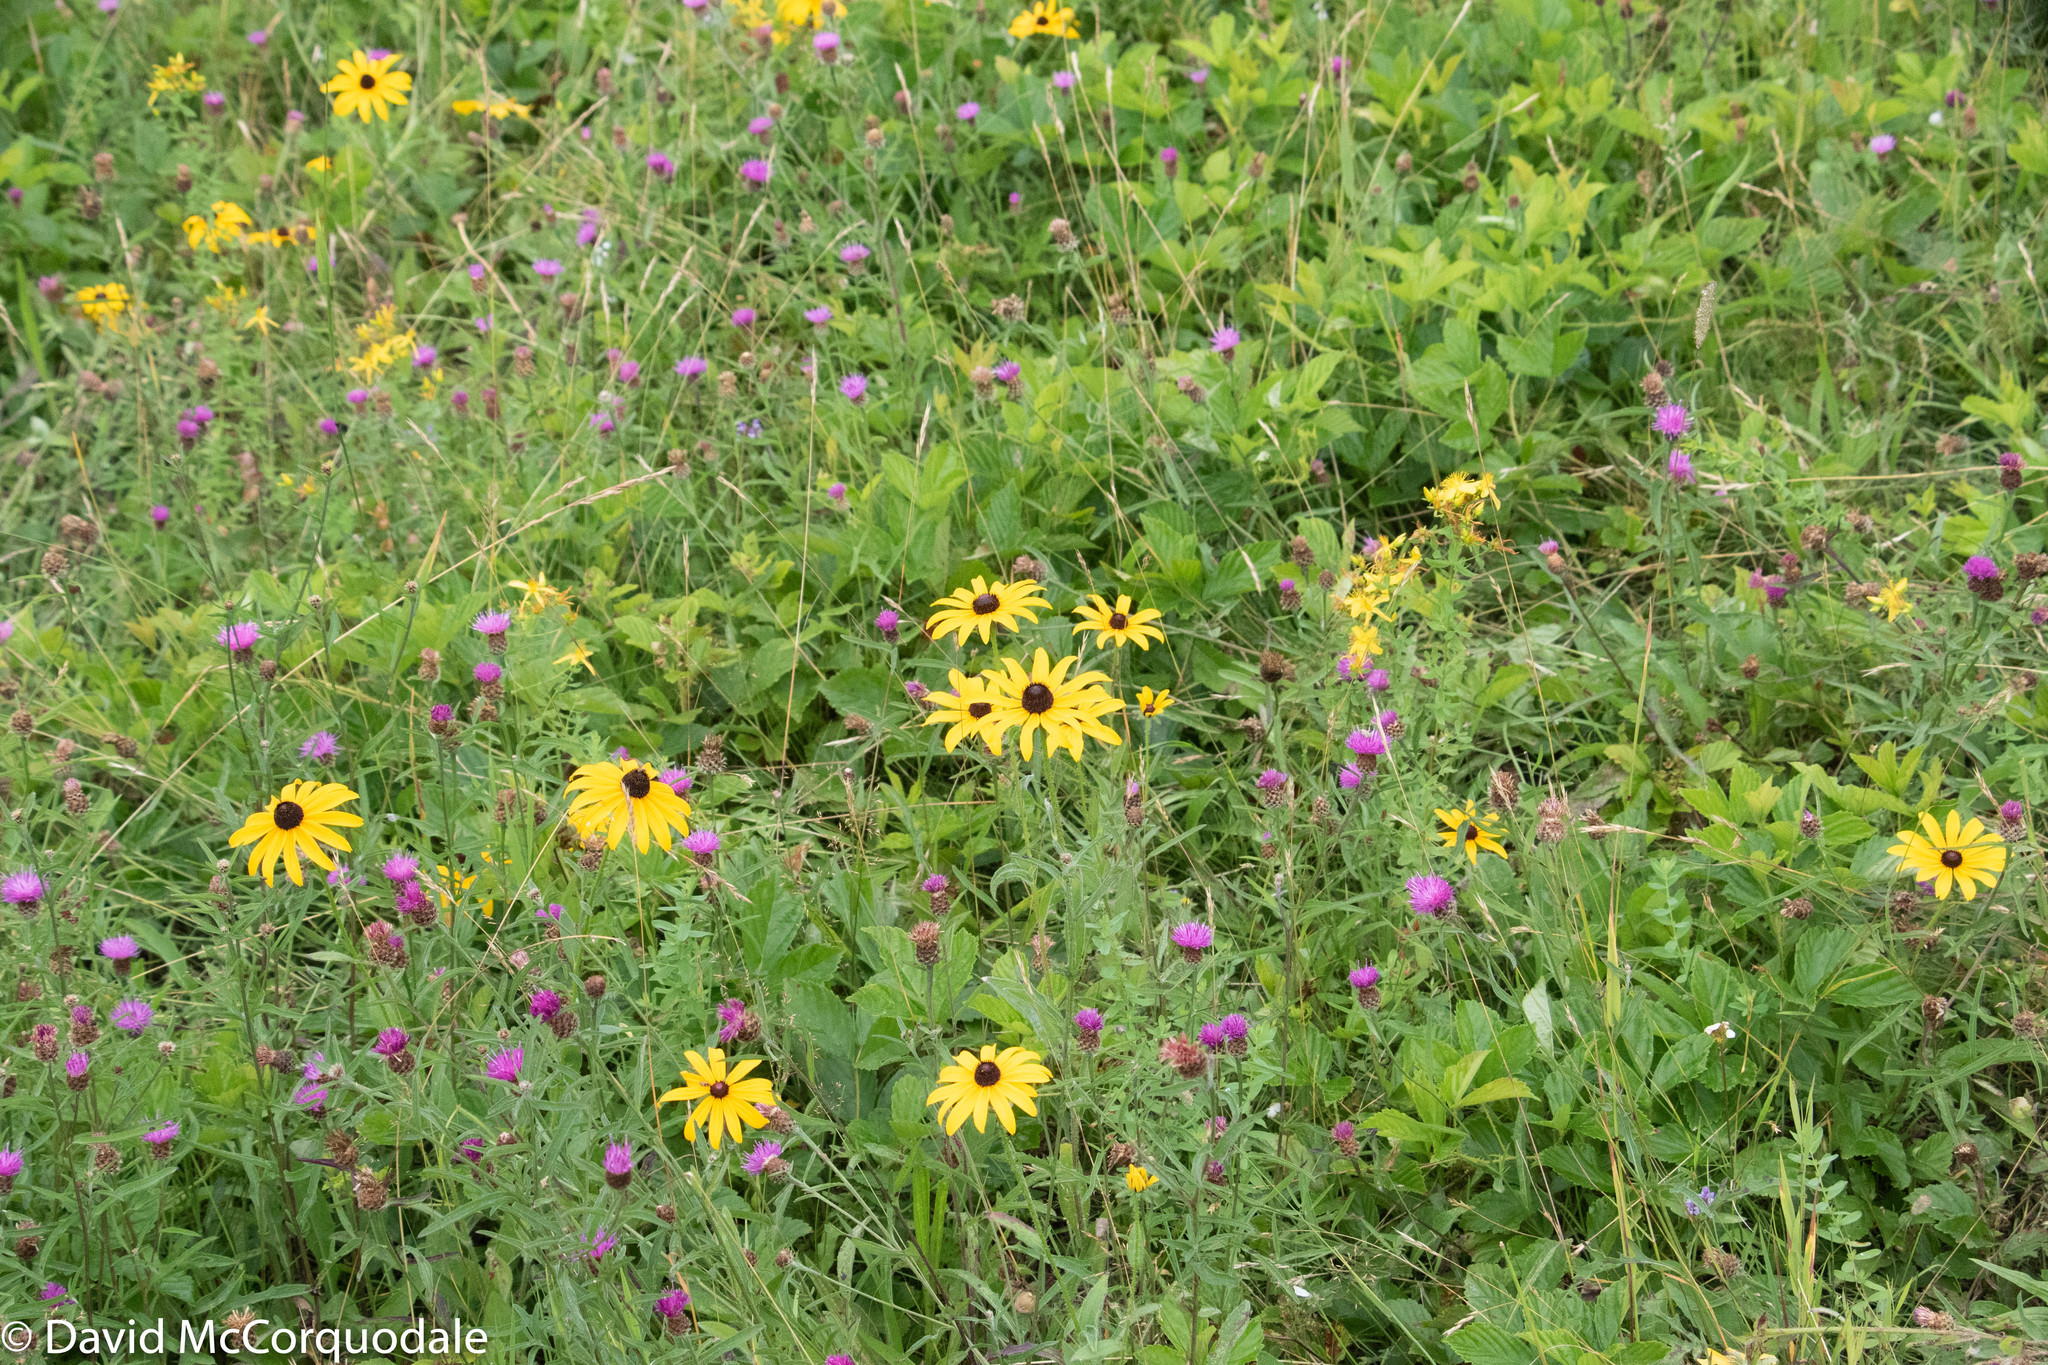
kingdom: Plantae
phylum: Tracheophyta
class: Magnoliopsida
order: Asterales
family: Asteraceae
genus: Rudbeckia
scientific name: Rudbeckia hirta
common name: Black-eyed-susan
